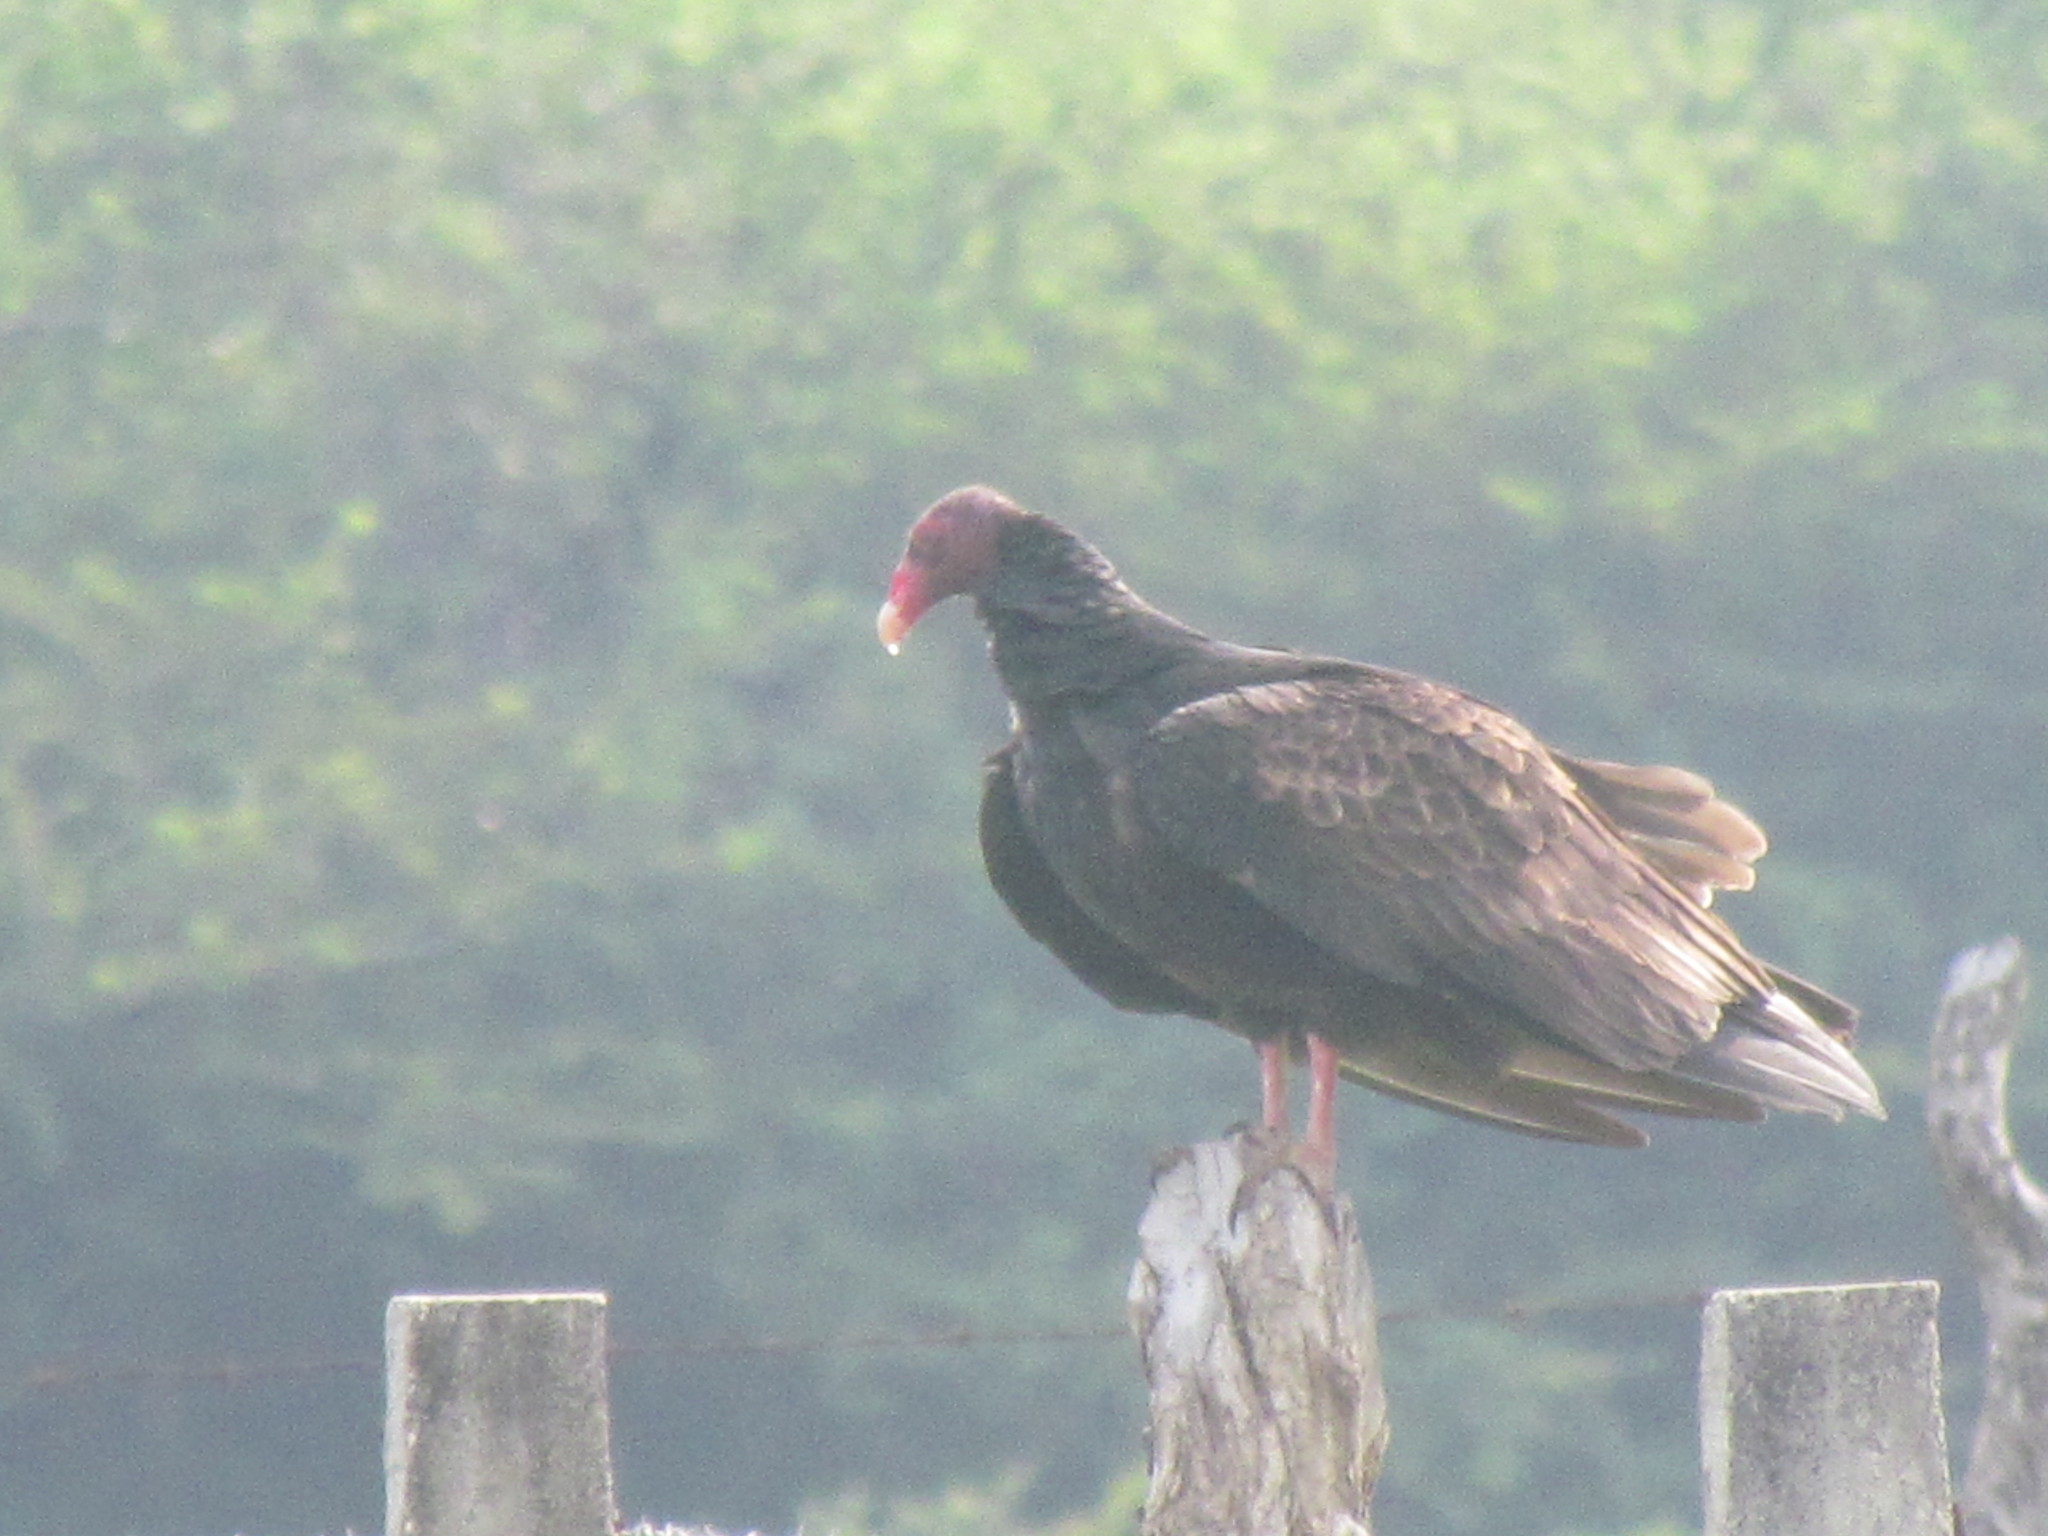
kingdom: Animalia
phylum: Chordata
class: Aves
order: Accipitriformes
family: Cathartidae
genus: Cathartes
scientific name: Cathartes aura
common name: Turkey vulture
